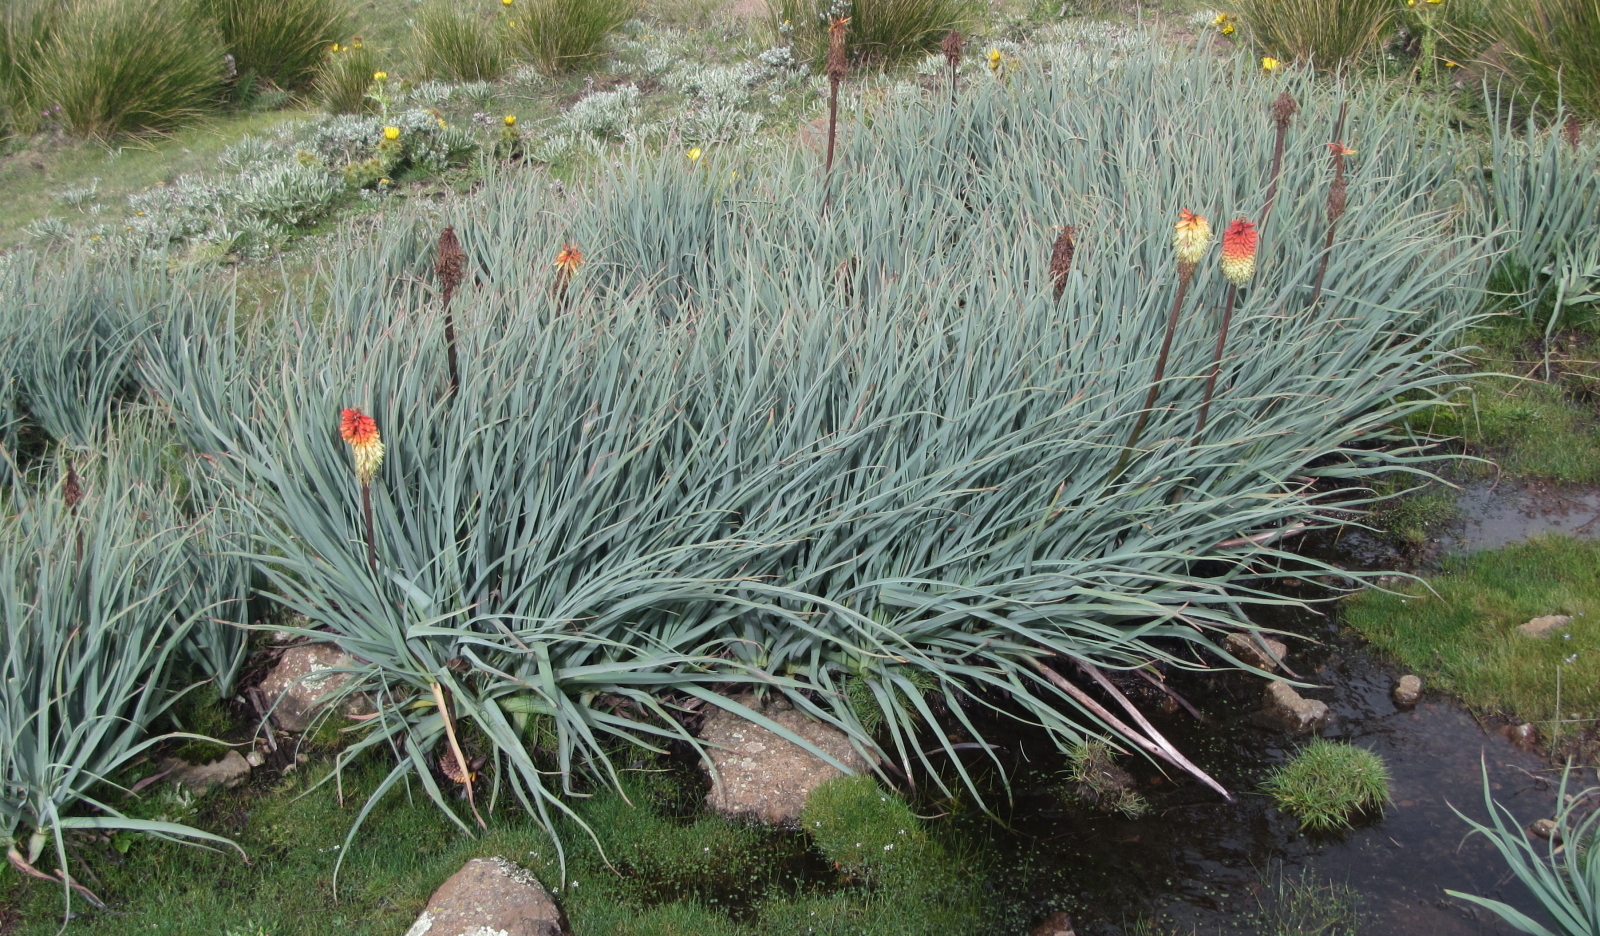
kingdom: Plantae
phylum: Tracheophyta
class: Liliopsida
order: Asparagales
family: Asphodelaceae
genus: Kniphofia
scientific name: Kniphofia caulescens
